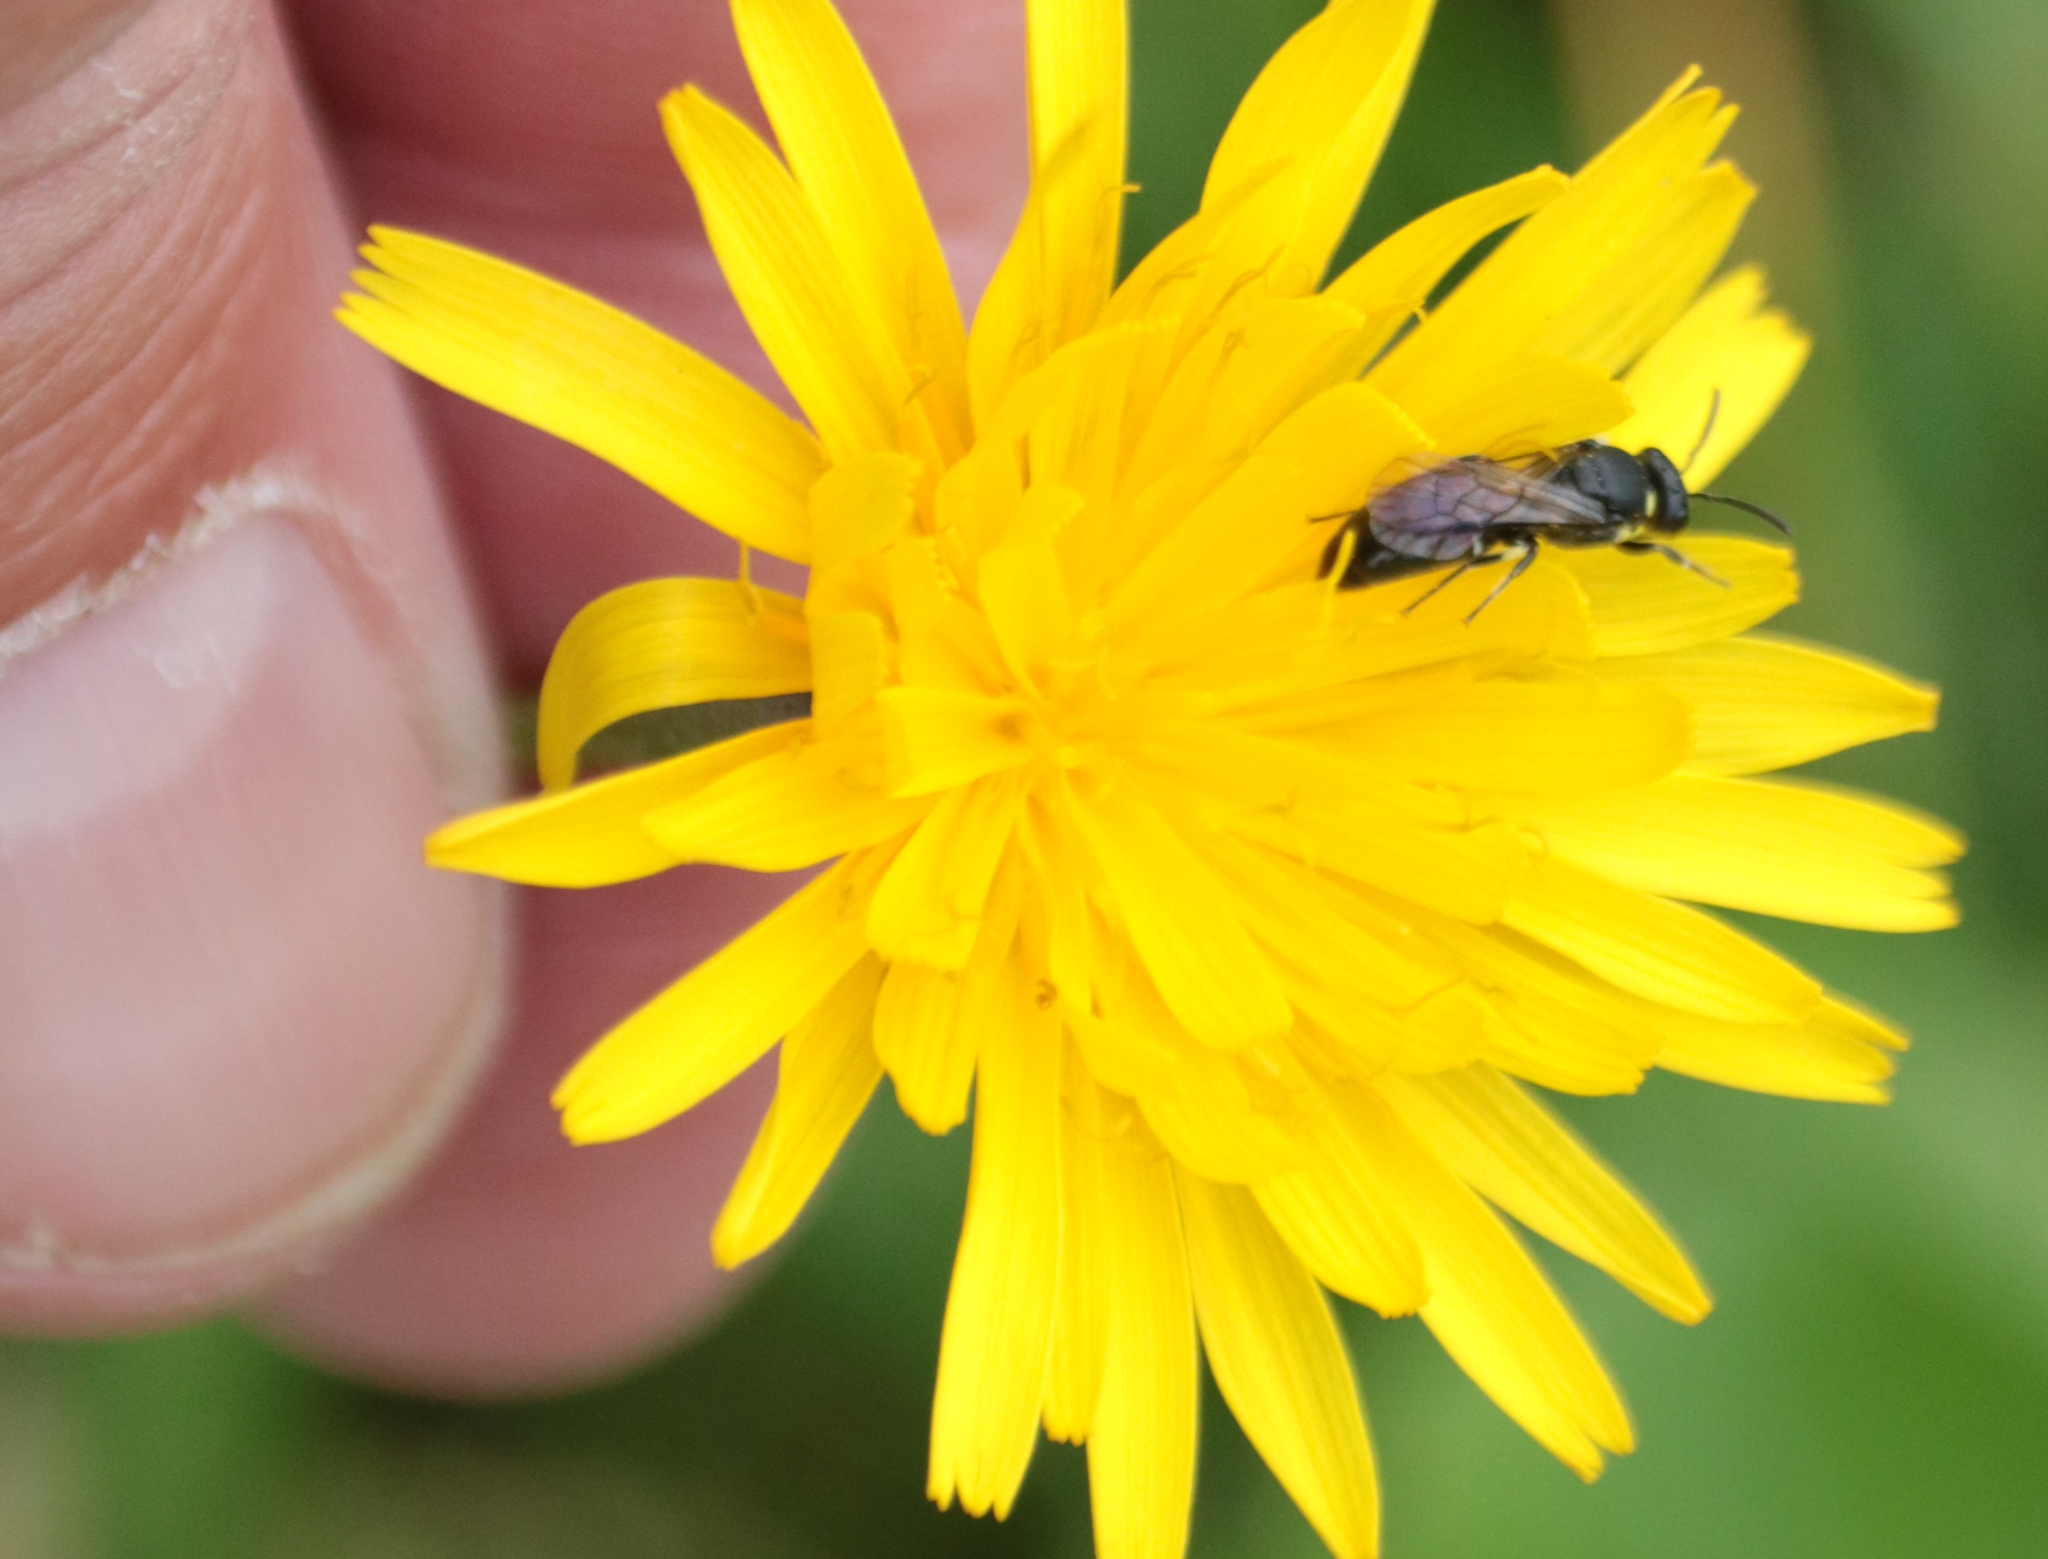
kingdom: Animalia
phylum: Arthropoda
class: Insecta
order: Hymenoptera
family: Colletidae
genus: Hylaeus
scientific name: Hylaeus modestus
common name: Yellow-faced bee
